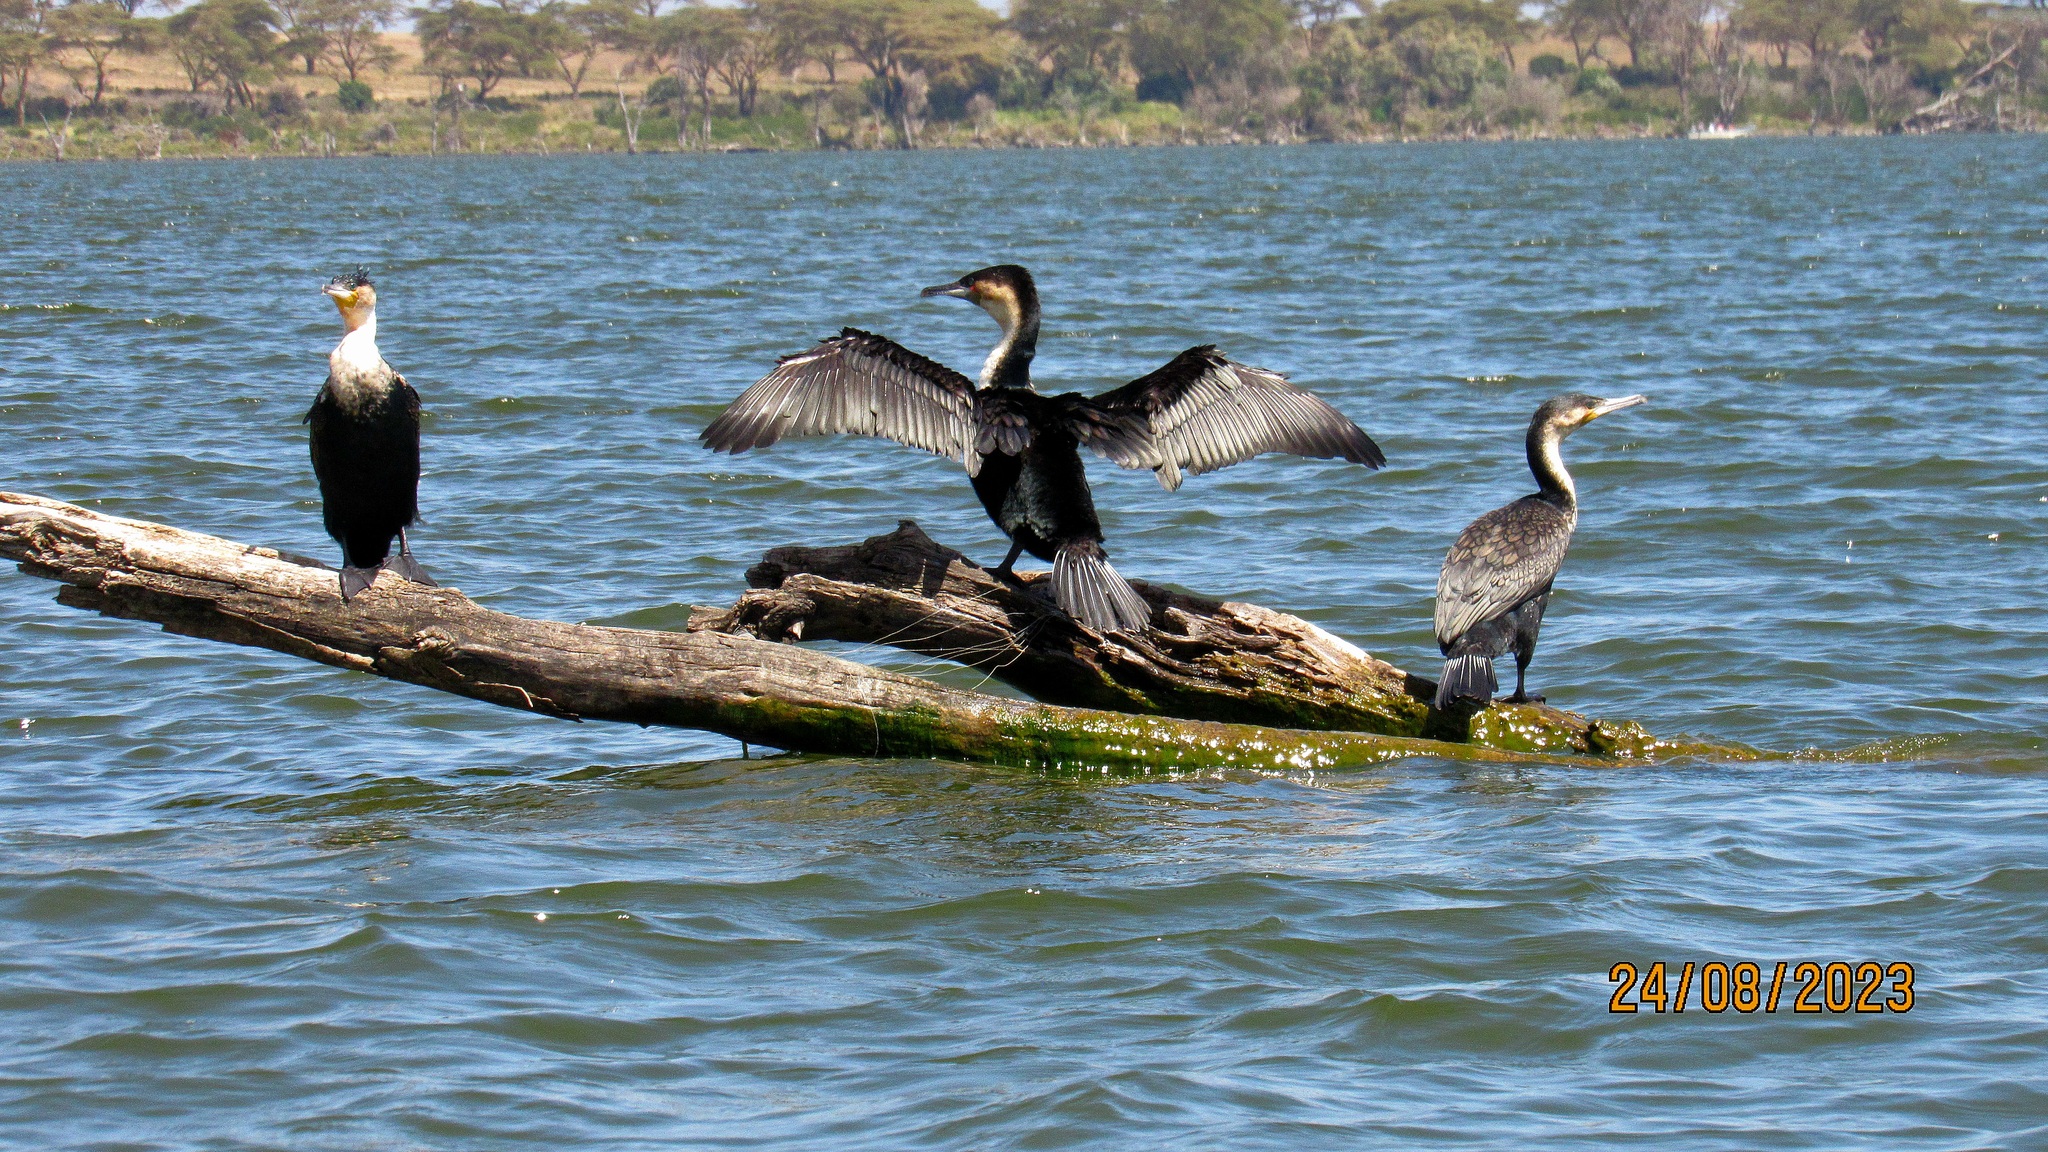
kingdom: Animalia
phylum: Chordata
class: Aves
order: Suliformes
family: Phalacrocoracidae
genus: Phalacrocorax
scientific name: Phalacrocorax carbo
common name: Great cormorant
